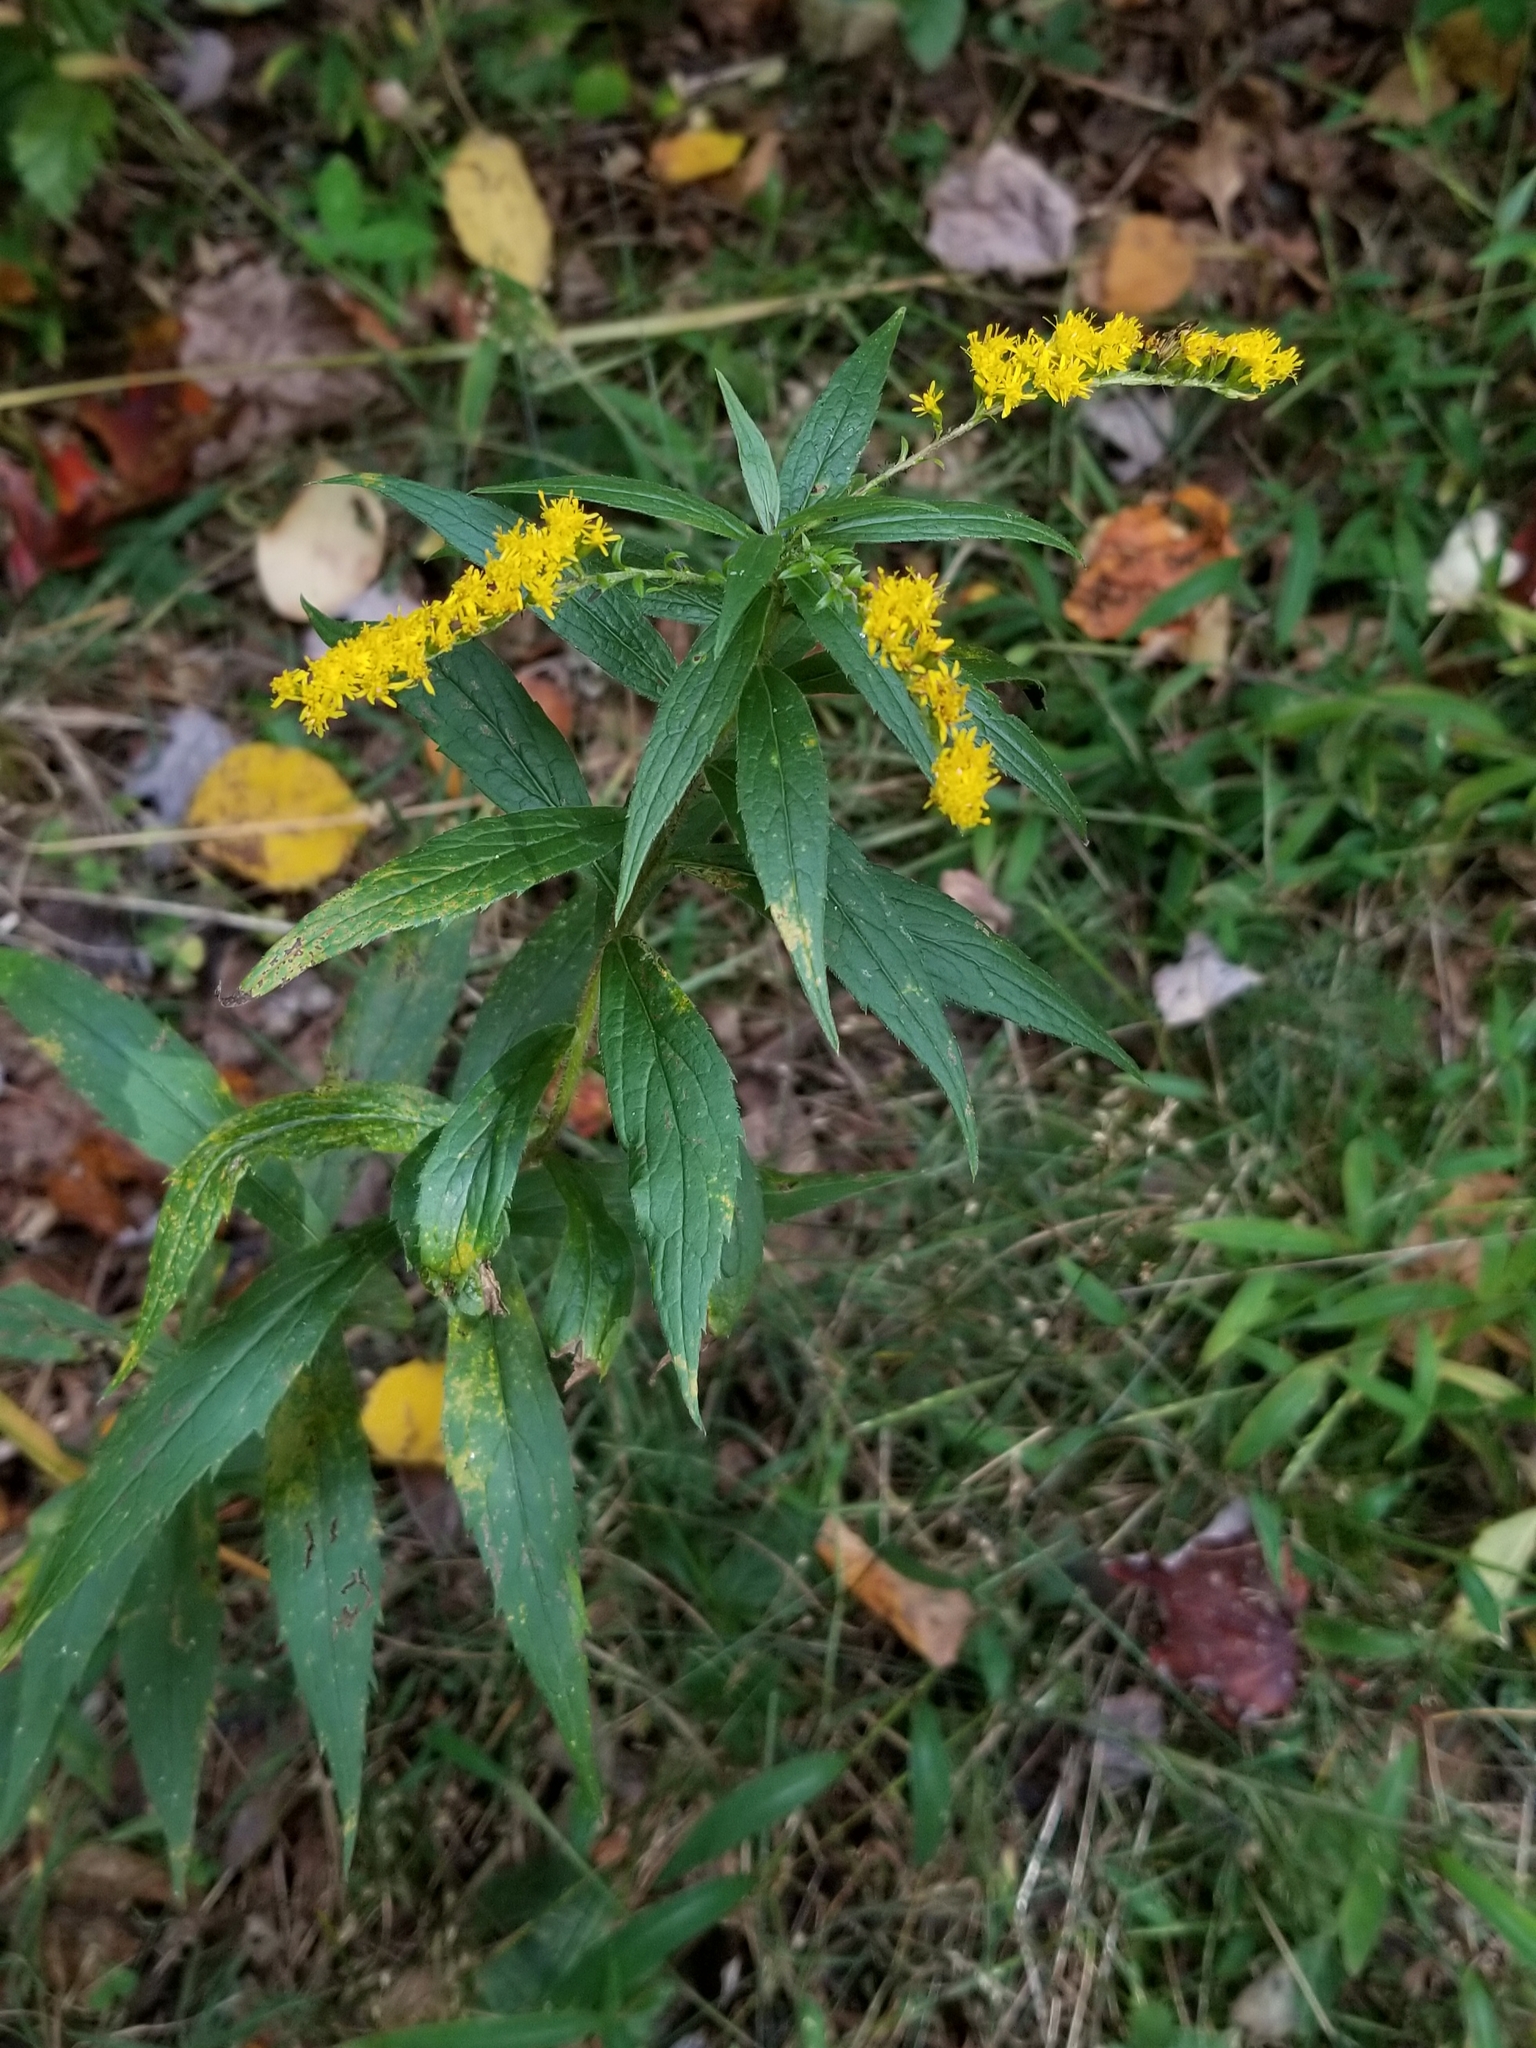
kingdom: Plantae
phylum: Tracheophyta
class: Magnoliopsida
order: Asterales
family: Asteraceae
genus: Solidago
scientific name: Solidago rugosa
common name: Rough-stemmed goldenrod
